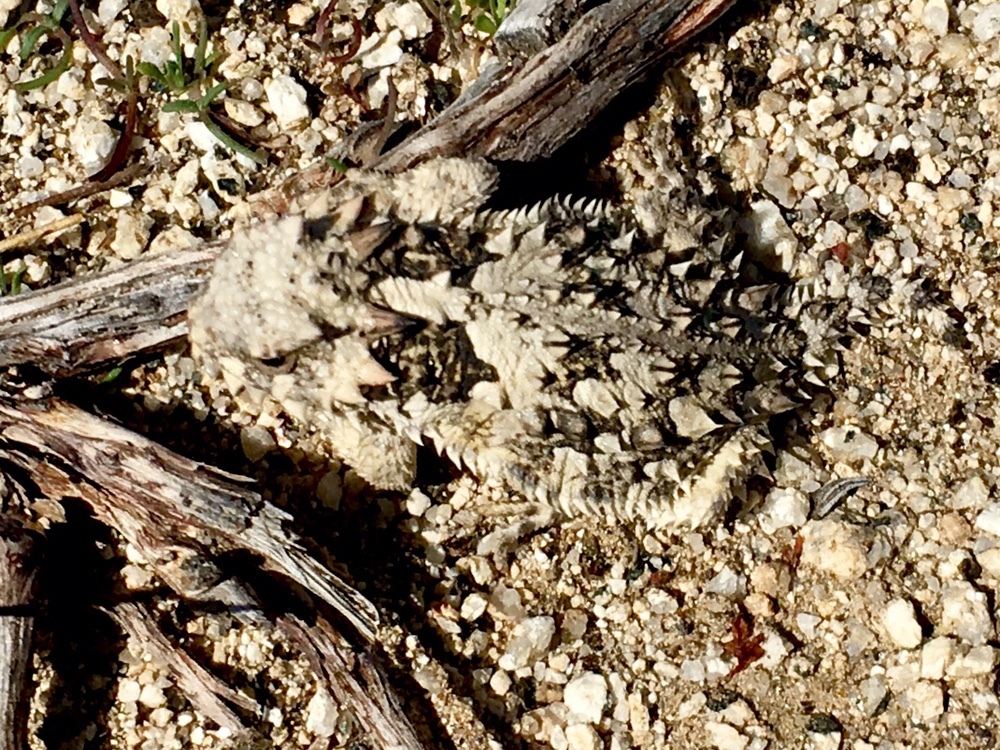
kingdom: Animalia
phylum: Chordata
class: Squamata
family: Phrynosomatidae
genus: Phrynosoma
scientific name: Phrynosoma blainvillii
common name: San diego horned lizard
